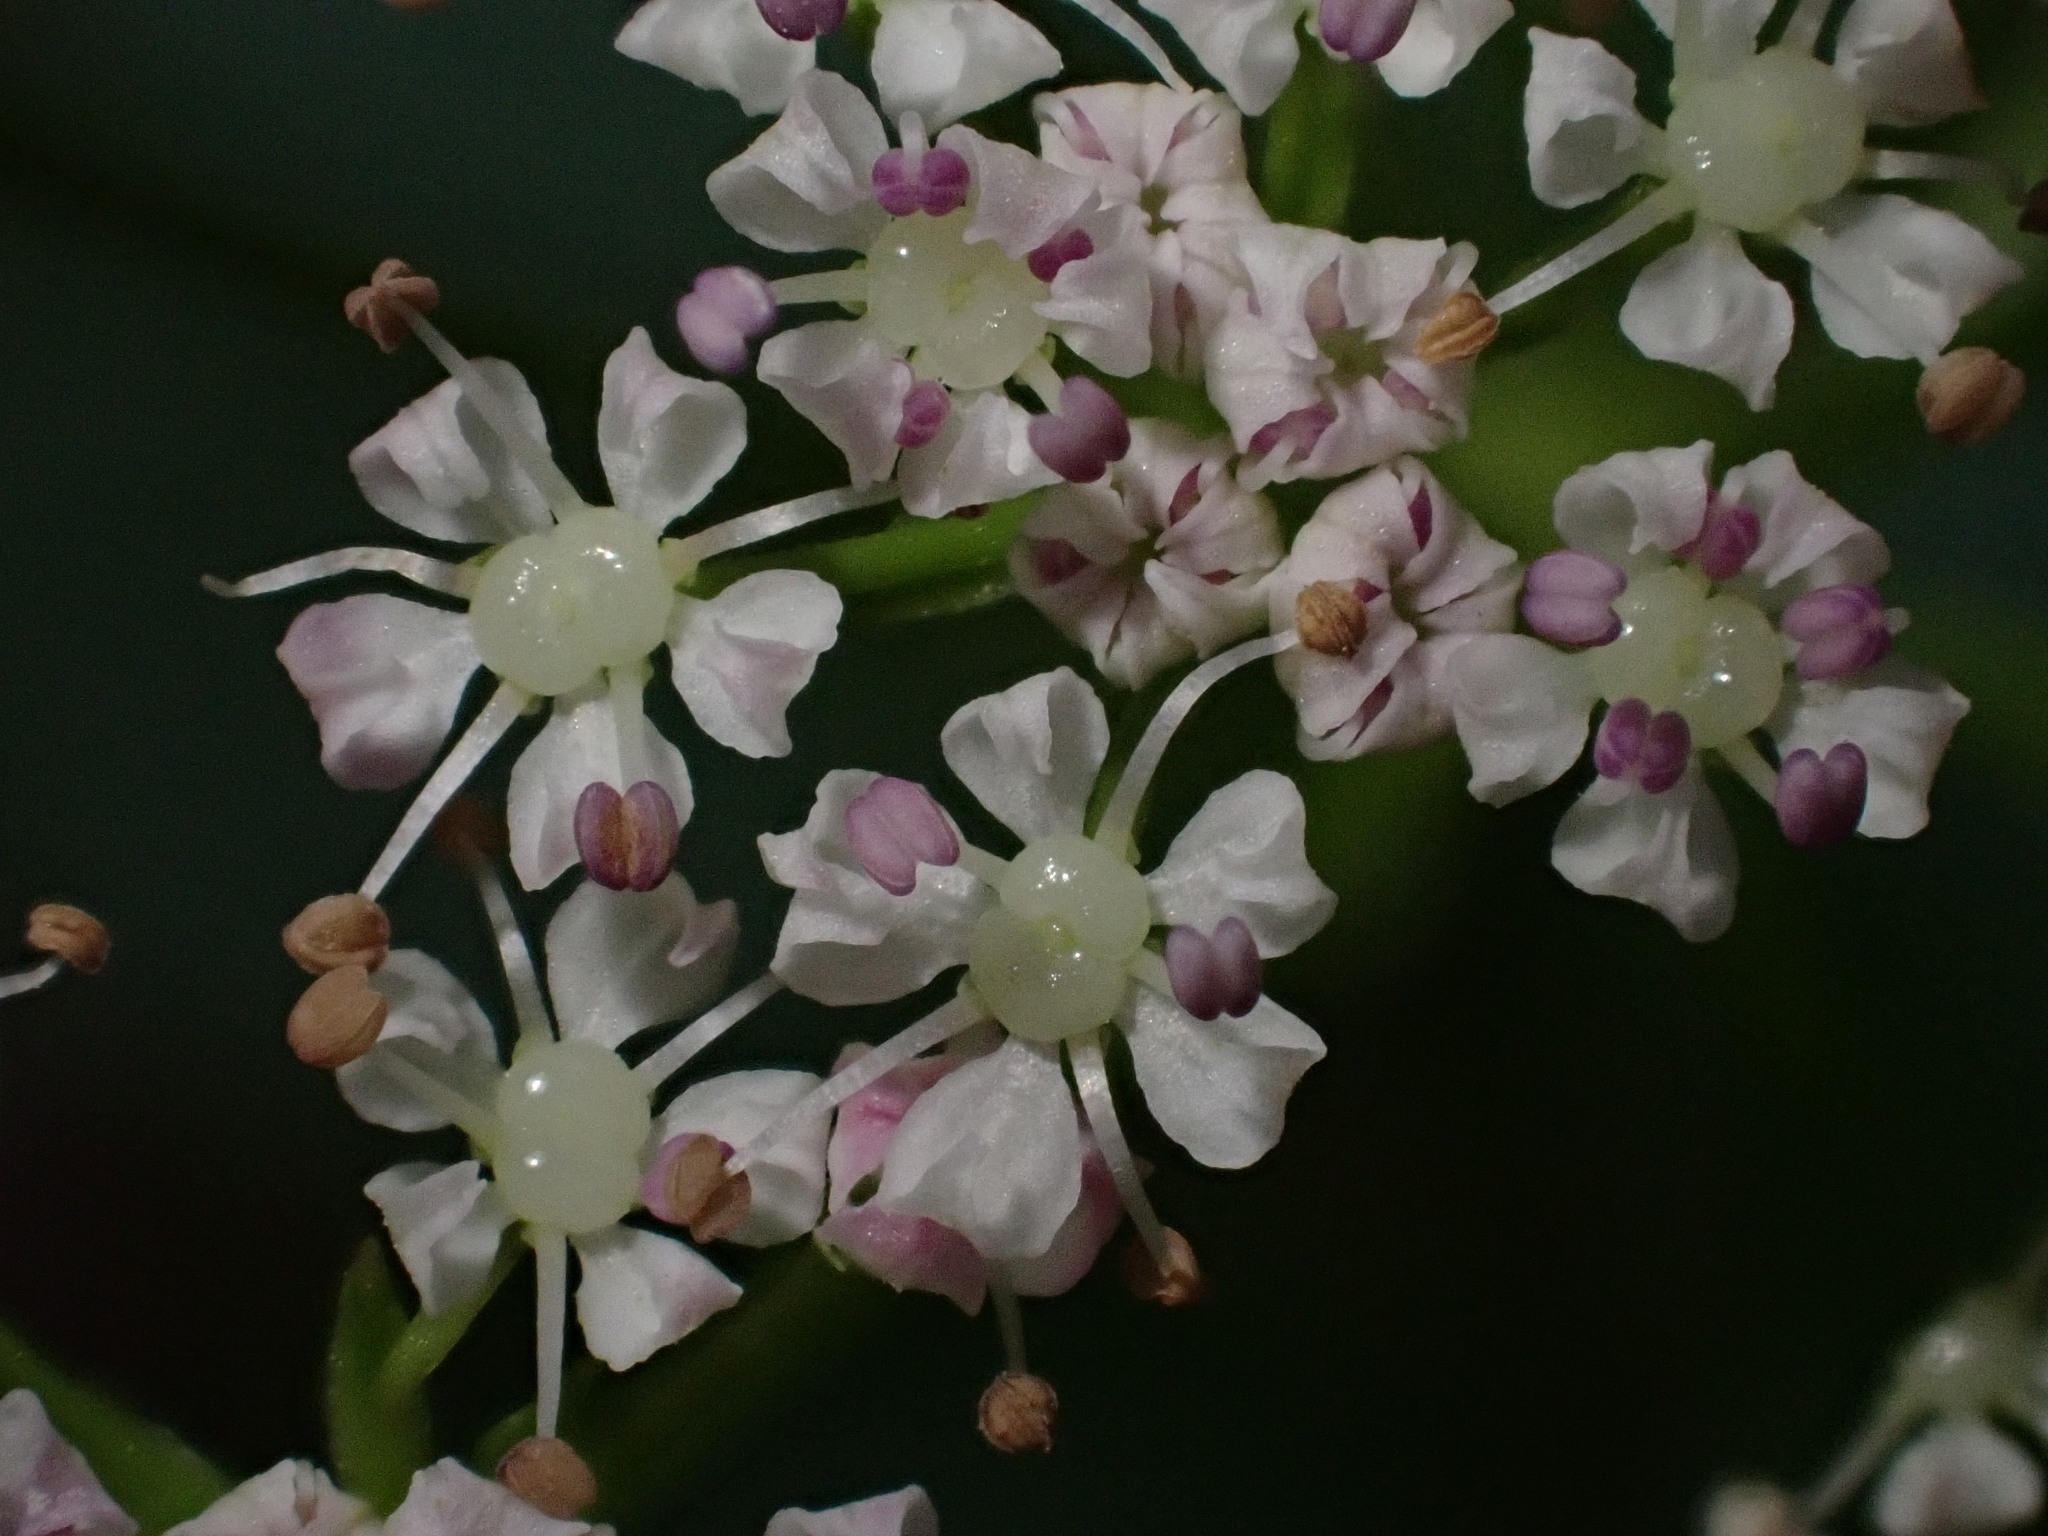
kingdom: Plantae
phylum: Tracheophyta
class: Magnoliopsida
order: Apiales
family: Apiaceae
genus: Ligusticum
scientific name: Ligusticum scothicum
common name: Beach lovage
